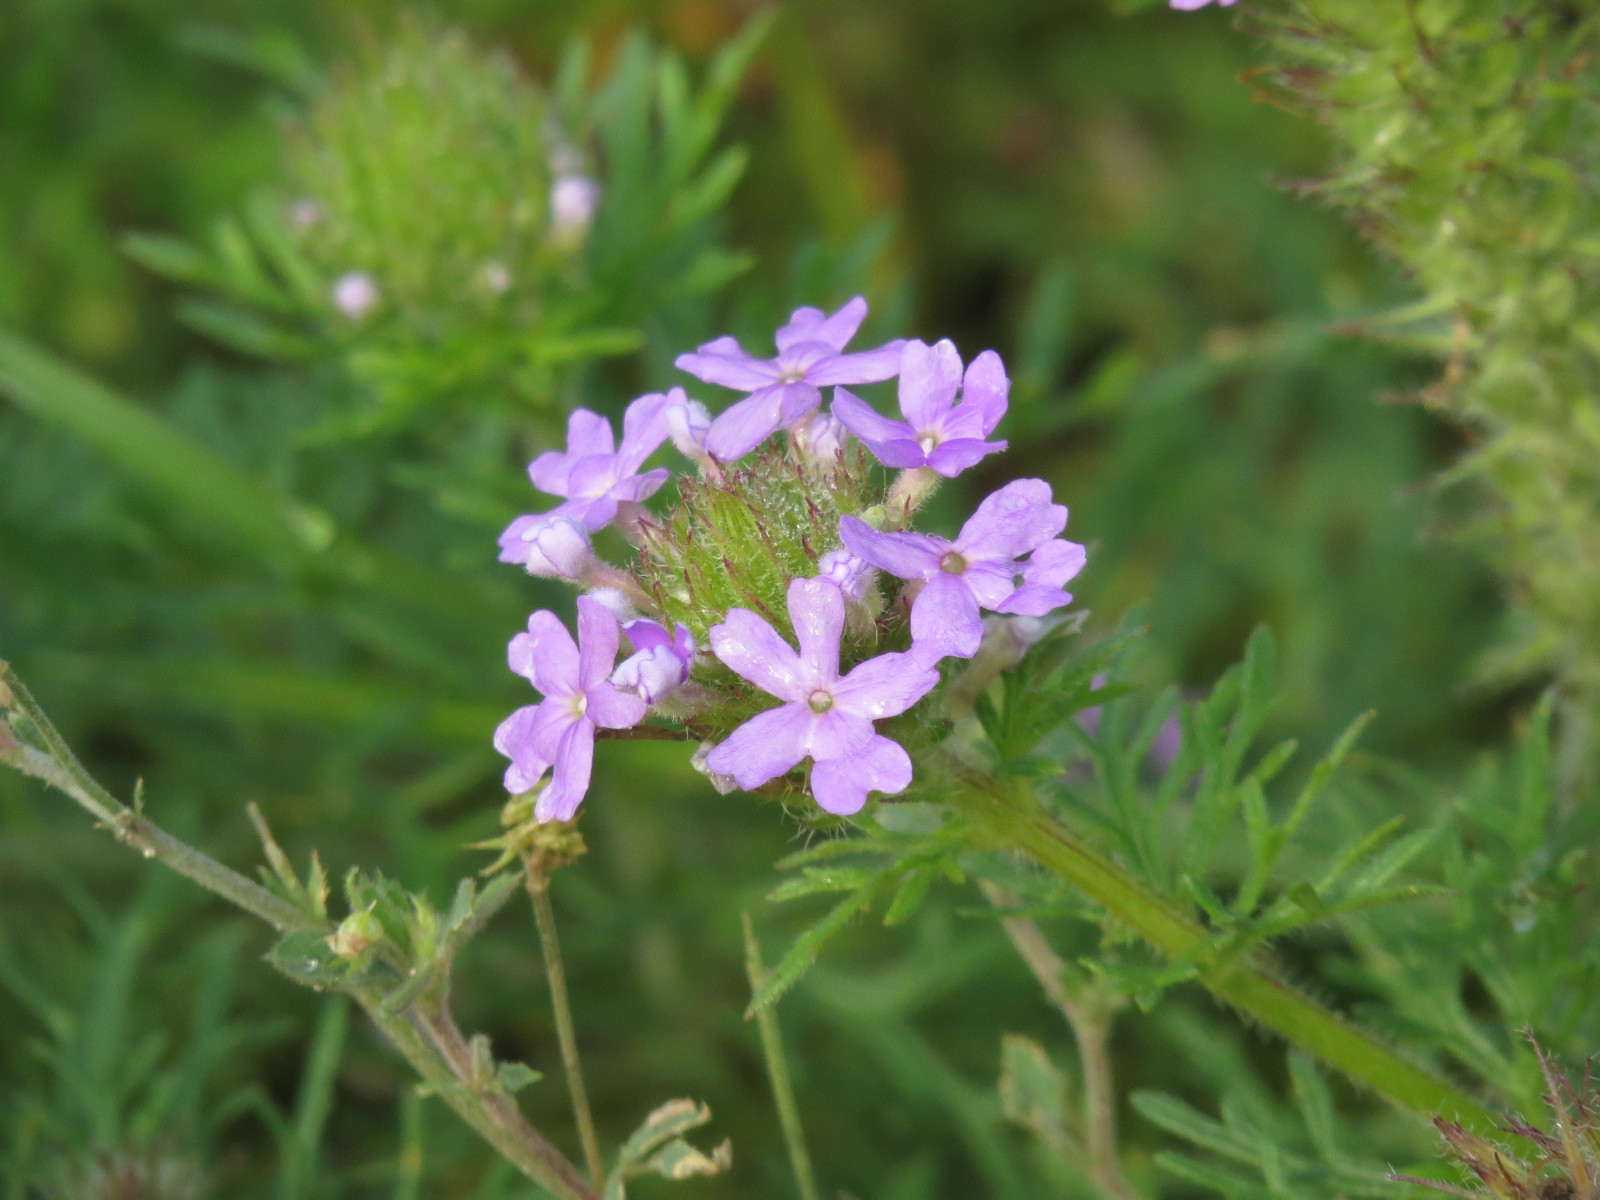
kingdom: Plantae
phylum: Tracheophyta
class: Magnoliopsida
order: Lamiales
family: Verbenaceae
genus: Verbena
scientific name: Verbena bipinnatifida
